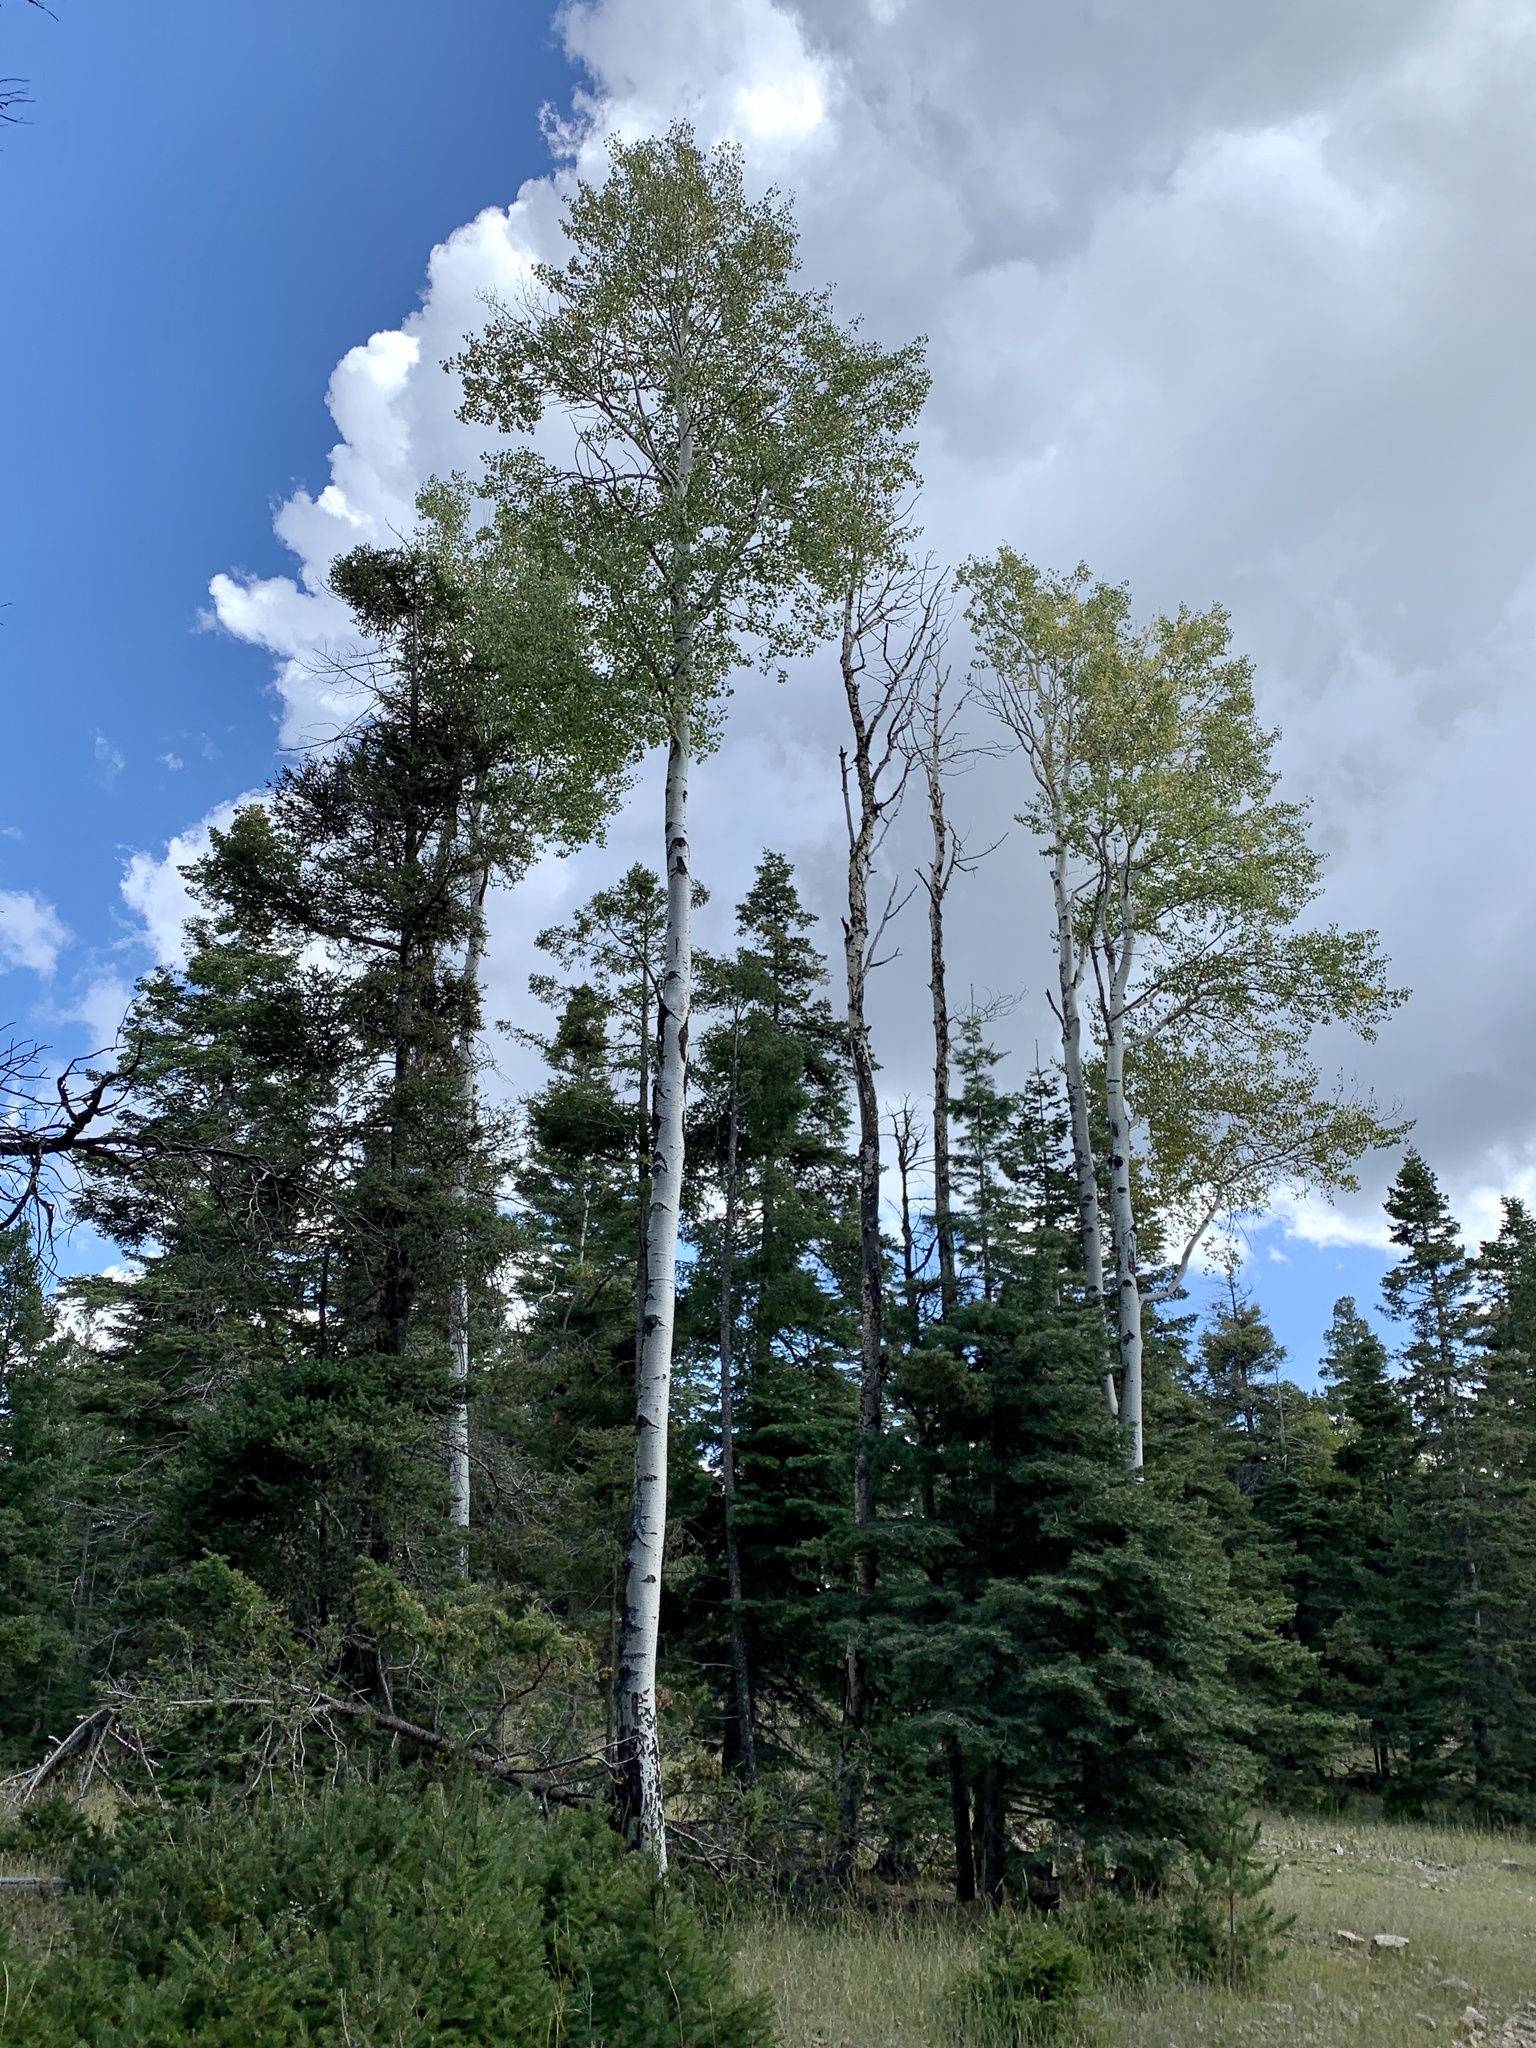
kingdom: Plantae
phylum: Tracheophyta
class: Magnoliopsida
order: Malpighiales
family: Salicaceae
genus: Populus
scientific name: Populus tremuloides
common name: Quaking aspen
